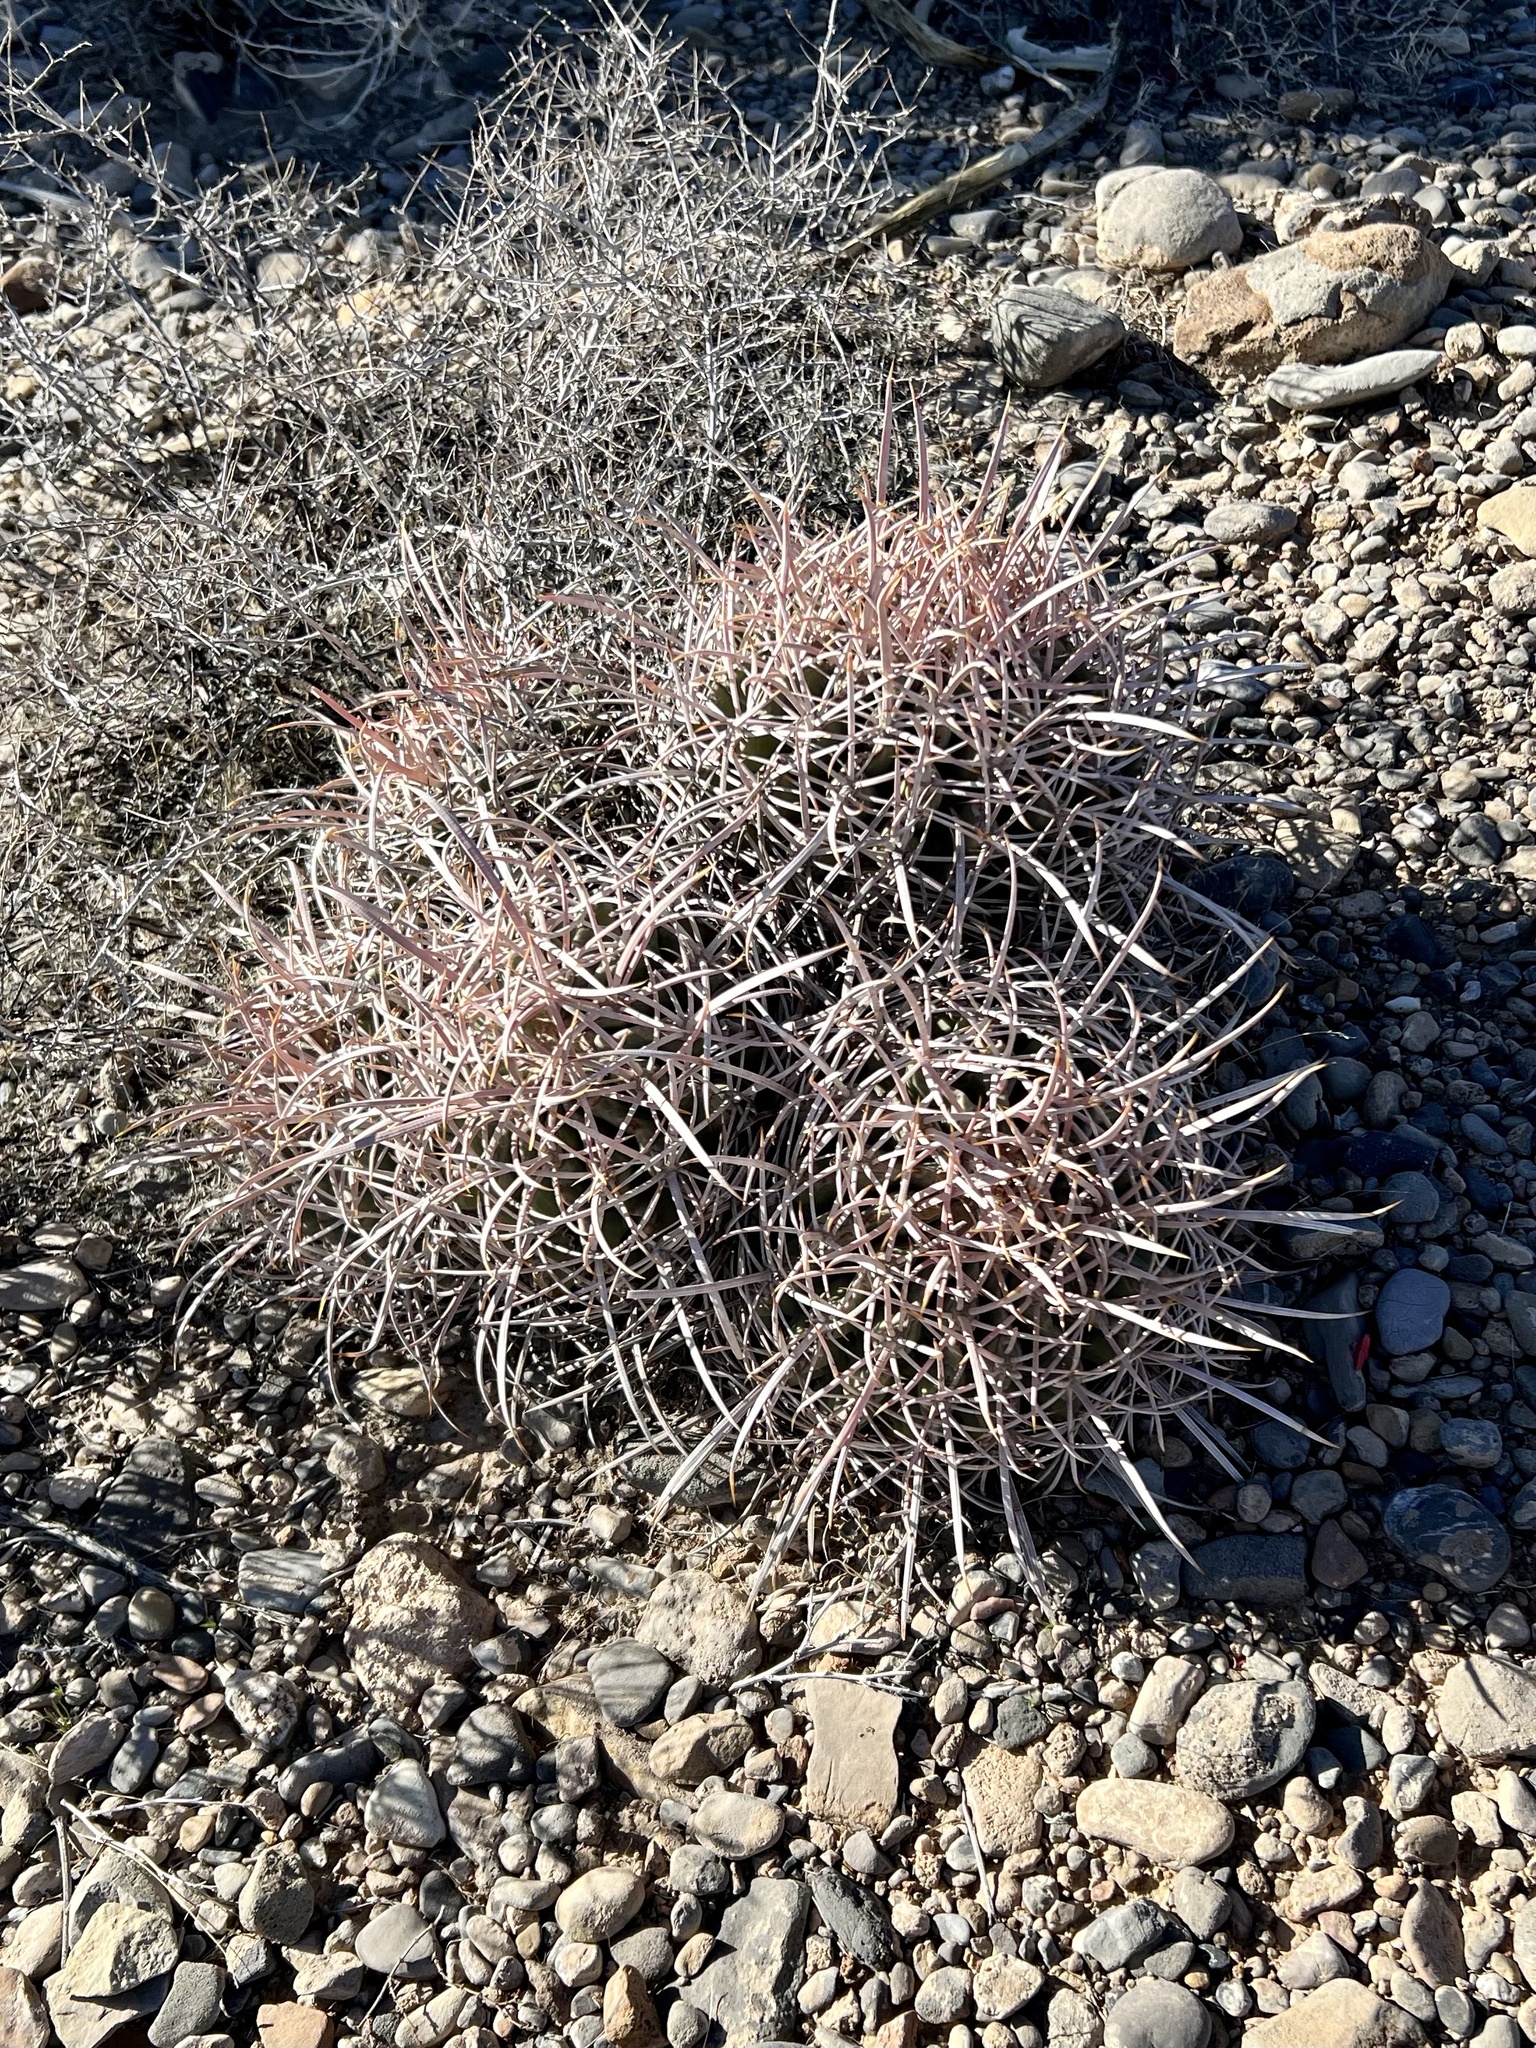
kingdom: Plantae
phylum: Tracheophyta
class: Magnoliopsida
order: Caryophyllales
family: Cactaceae
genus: Echinocactus
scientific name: Echinocactus polycephalus
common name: Cottontop cactus
